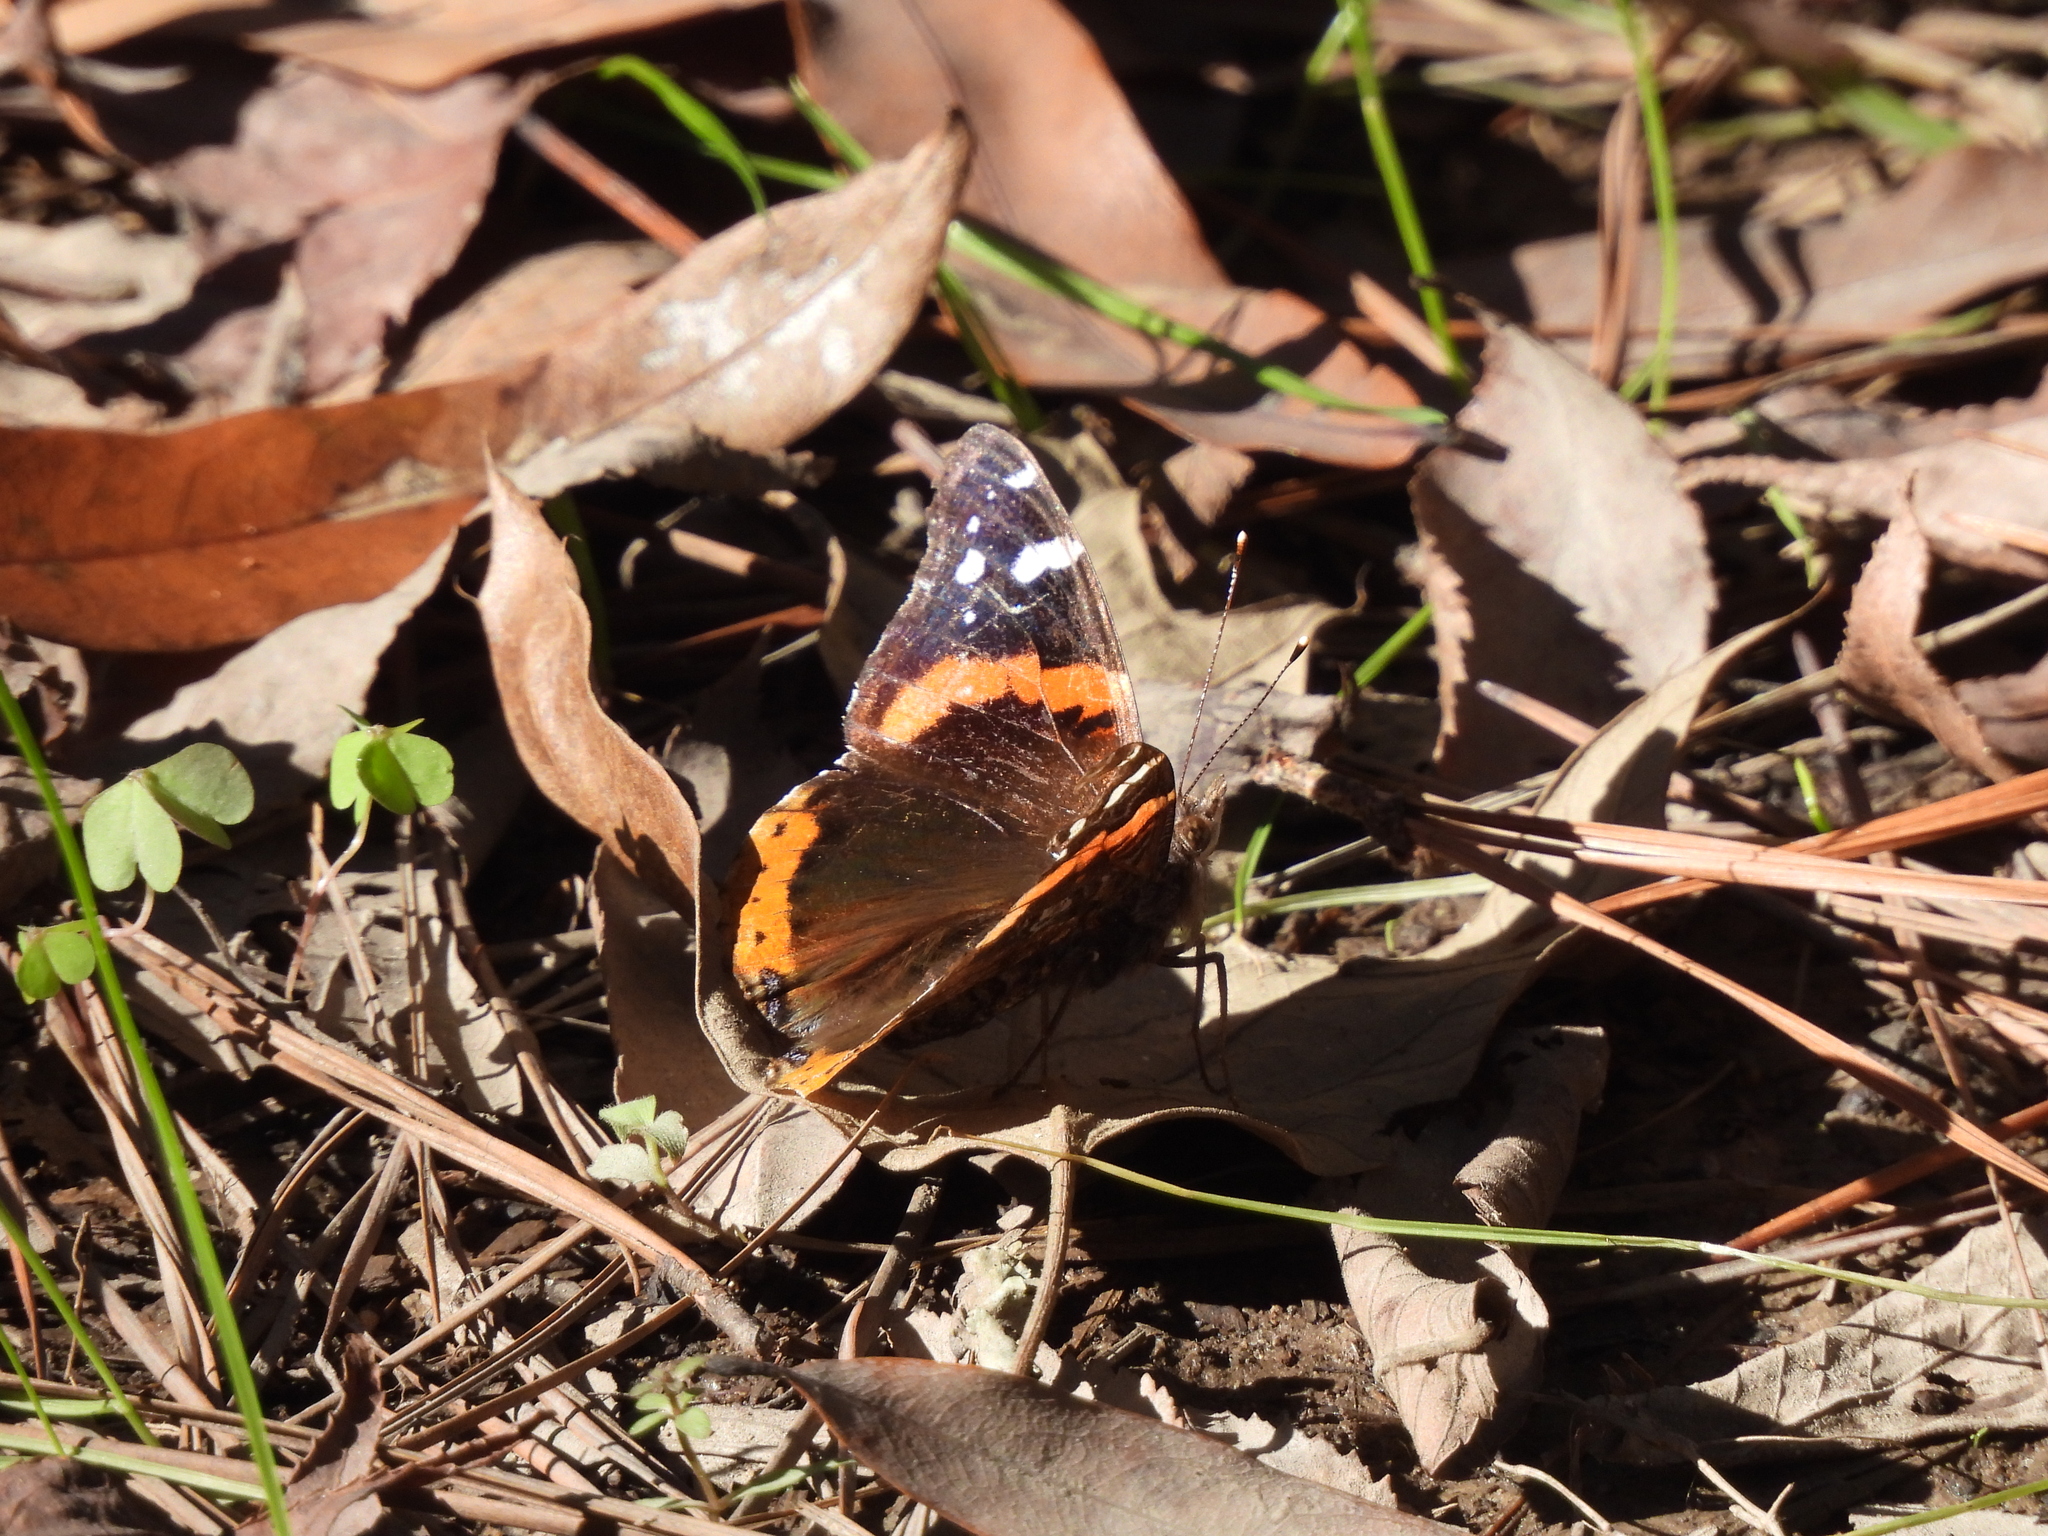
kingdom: Animalia
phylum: Arthropoda
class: Insecta
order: Lepidoptera
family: Nymphalidae
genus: Vanessa
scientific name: Vanessa atalanta
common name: Red admiral
